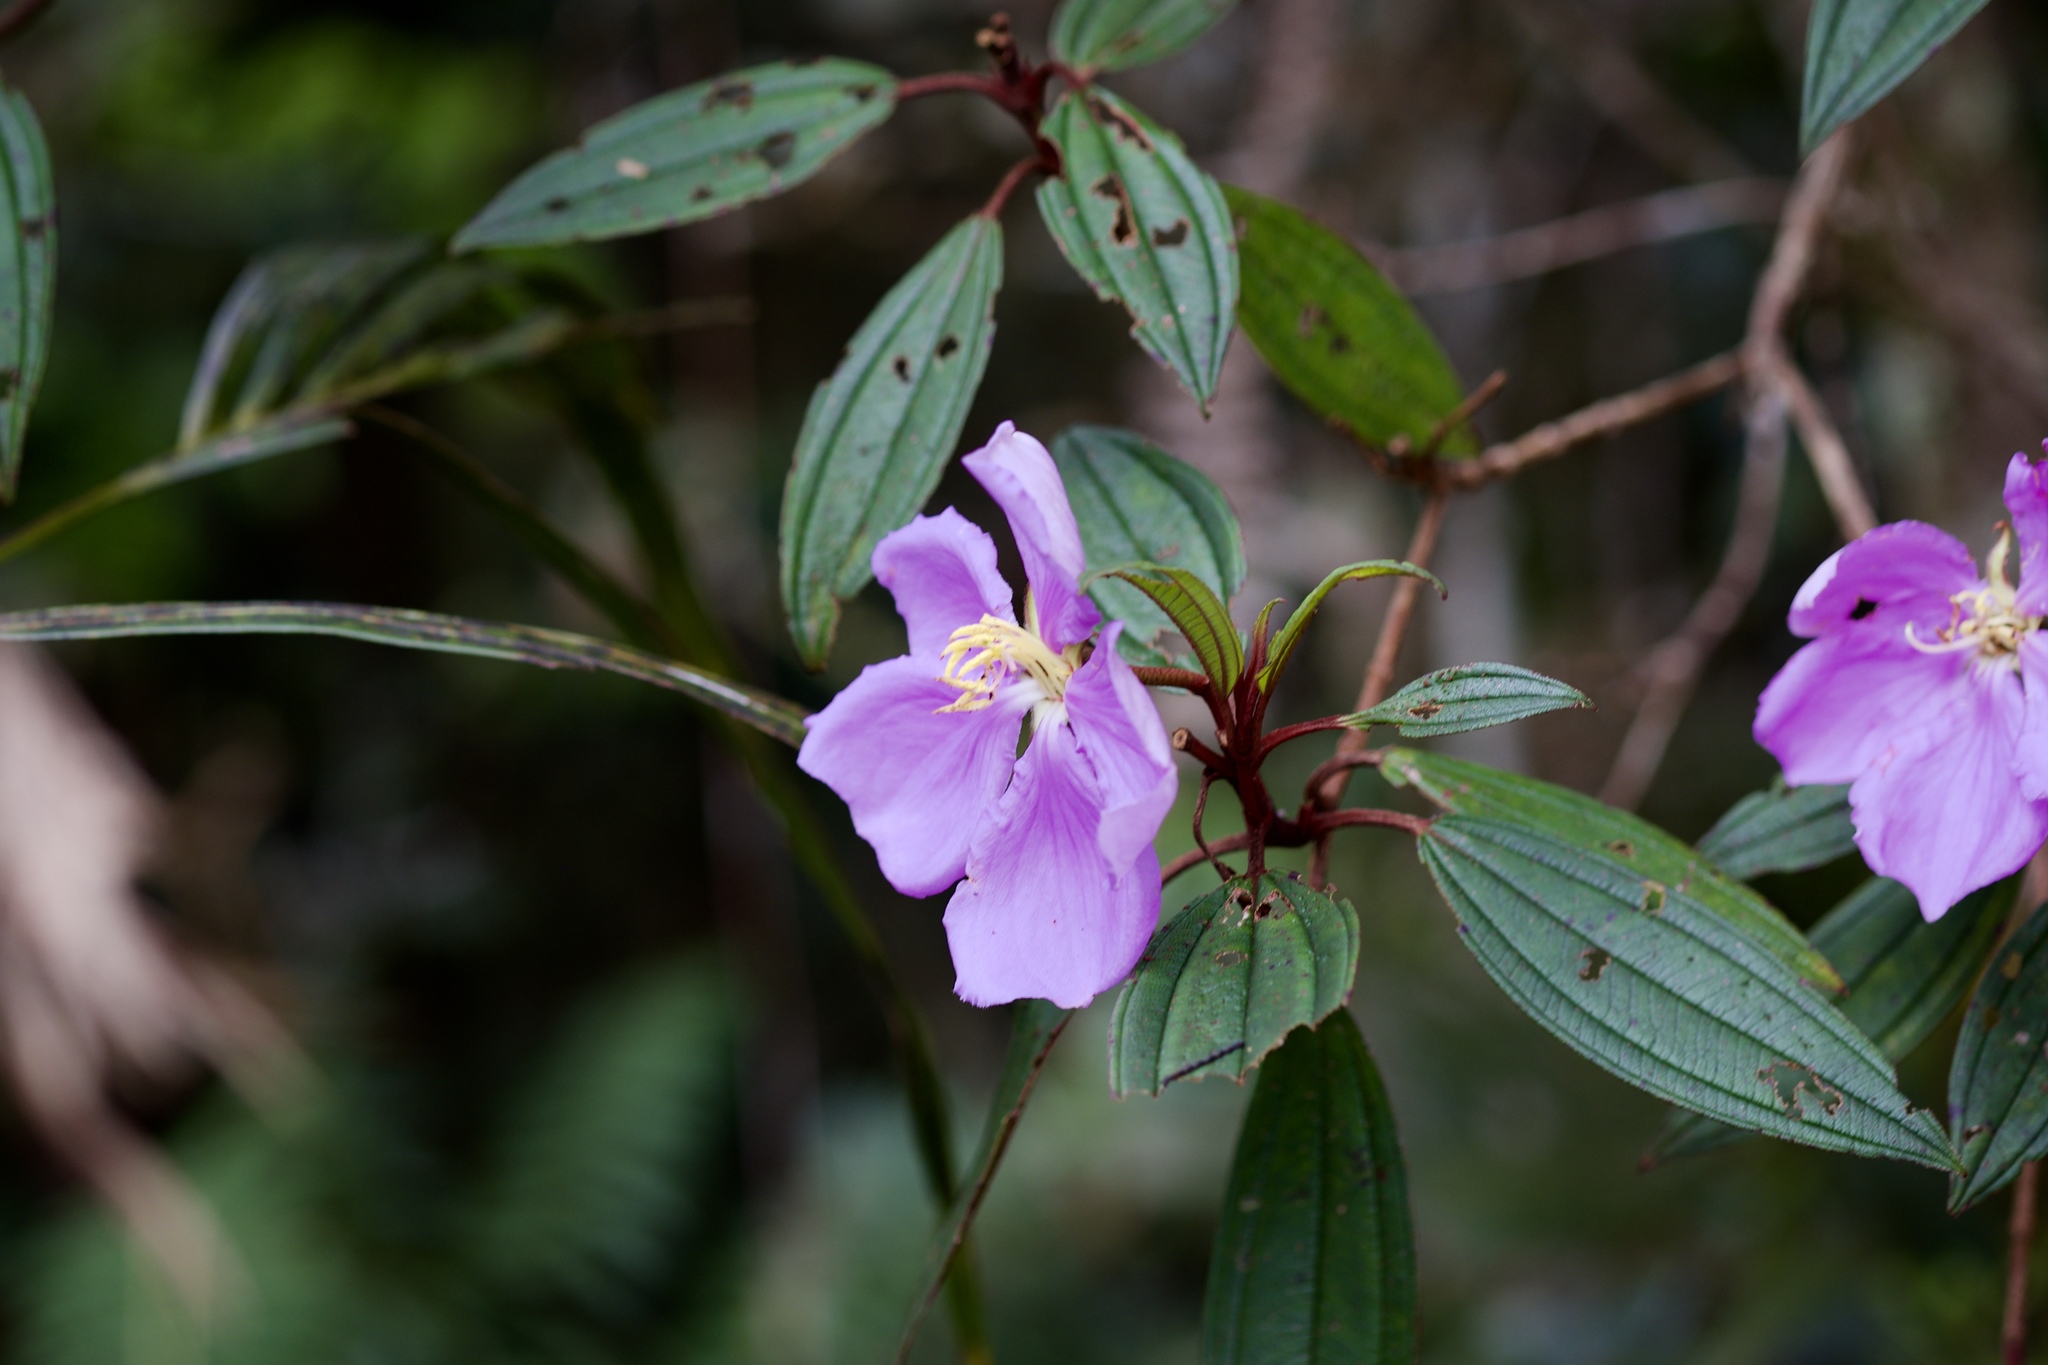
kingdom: Plantae
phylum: Tracheophyta
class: Magnoliopsida
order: Myrtales
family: Melastomataceae
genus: Melastoma
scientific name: Melastoma malabathricum
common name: Indian-rhododendron
